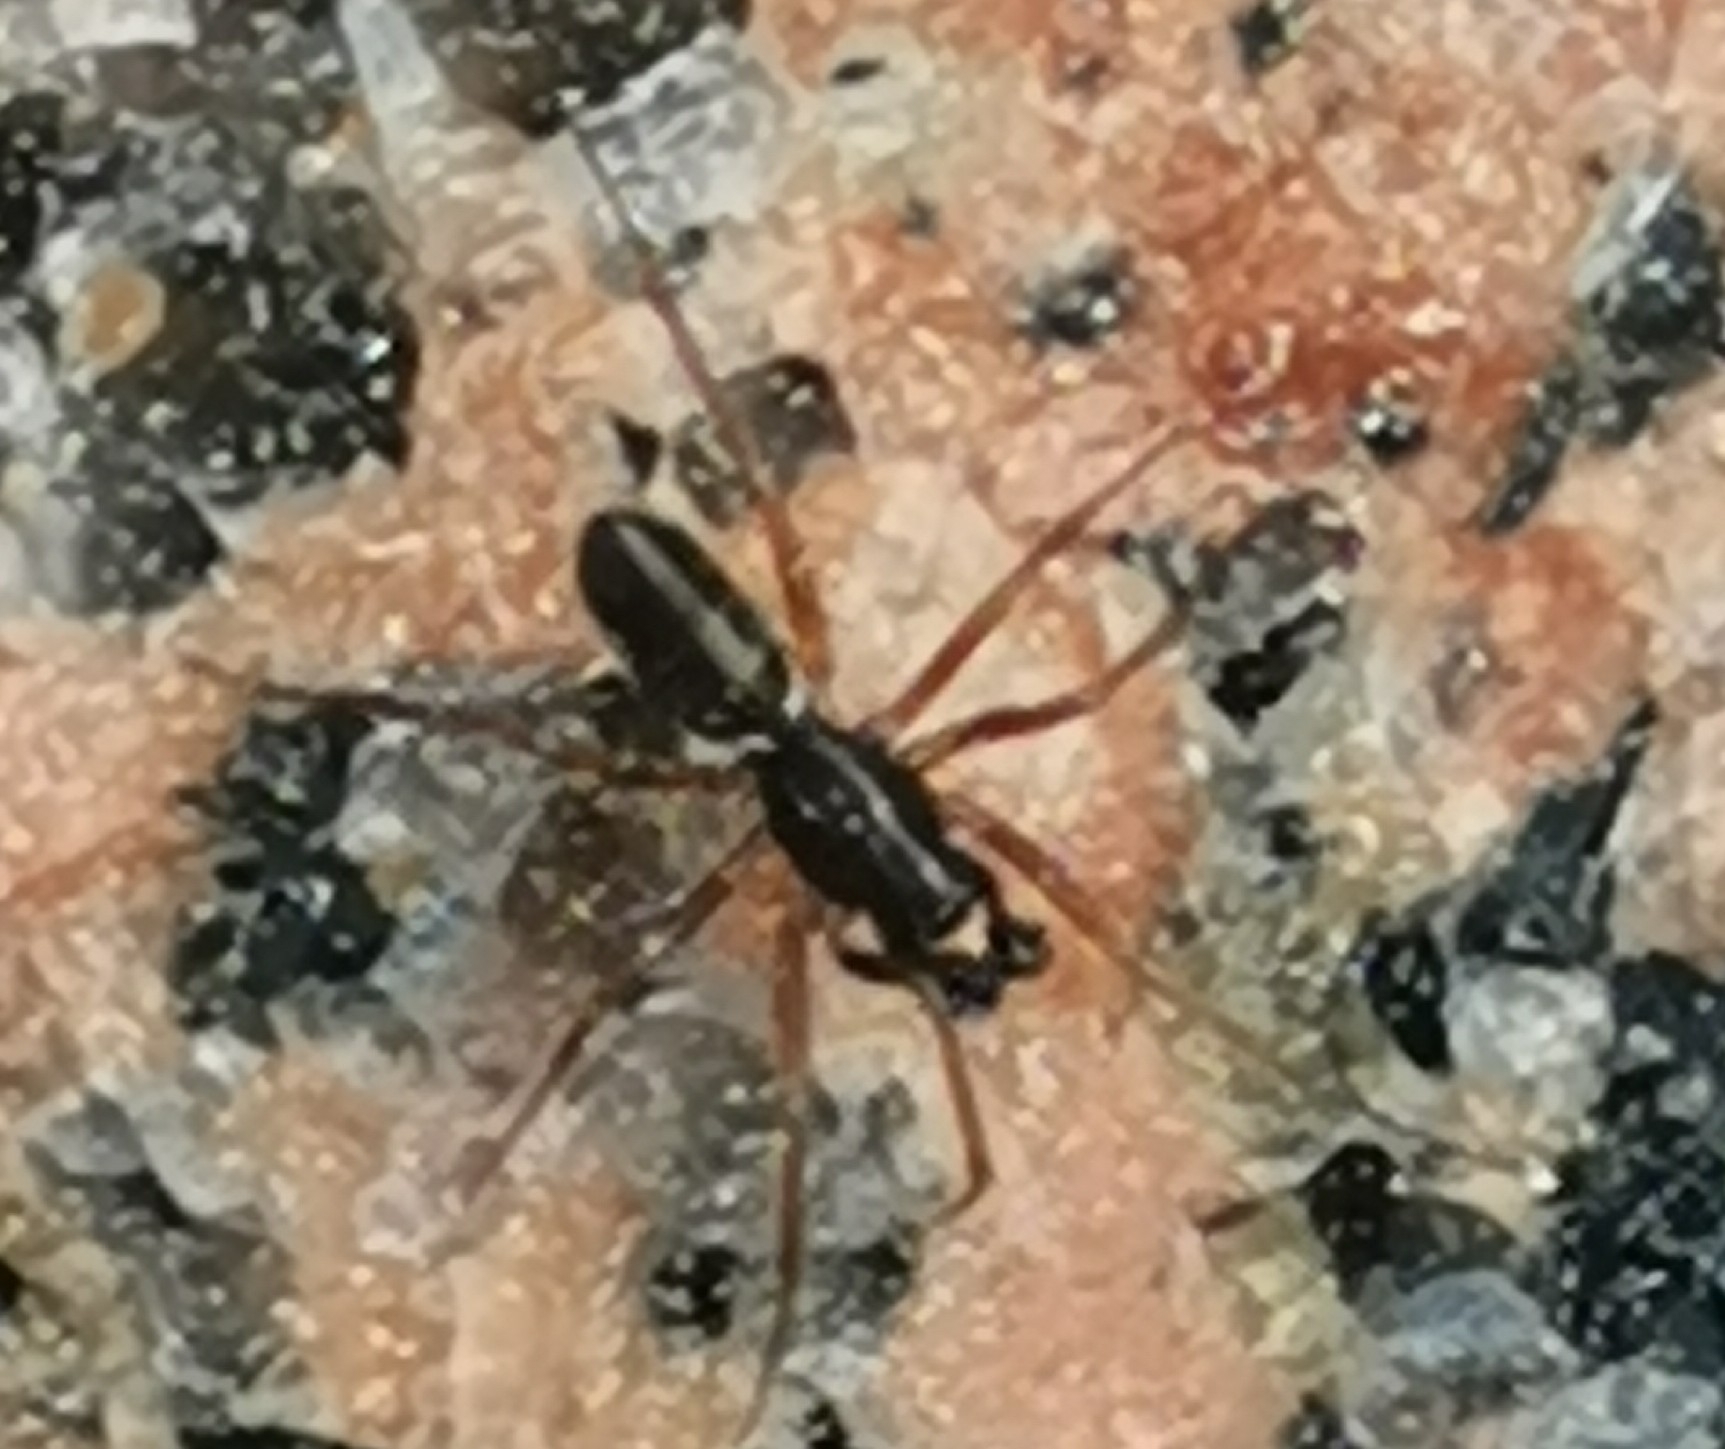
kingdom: Animalia
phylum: Arthropoda
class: Arachnida
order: Araneae
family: Linyphiidae
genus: Neriene
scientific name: Neriene clathrata
